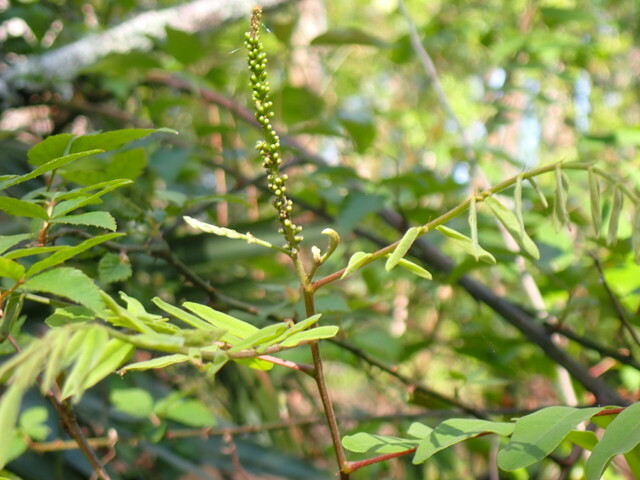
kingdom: Plantae
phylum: Tracheophyta
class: Magnoliopsida
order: Fabales
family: Fabaceae
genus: Amorpha
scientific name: Amorpha fruticosa
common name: False indigo
